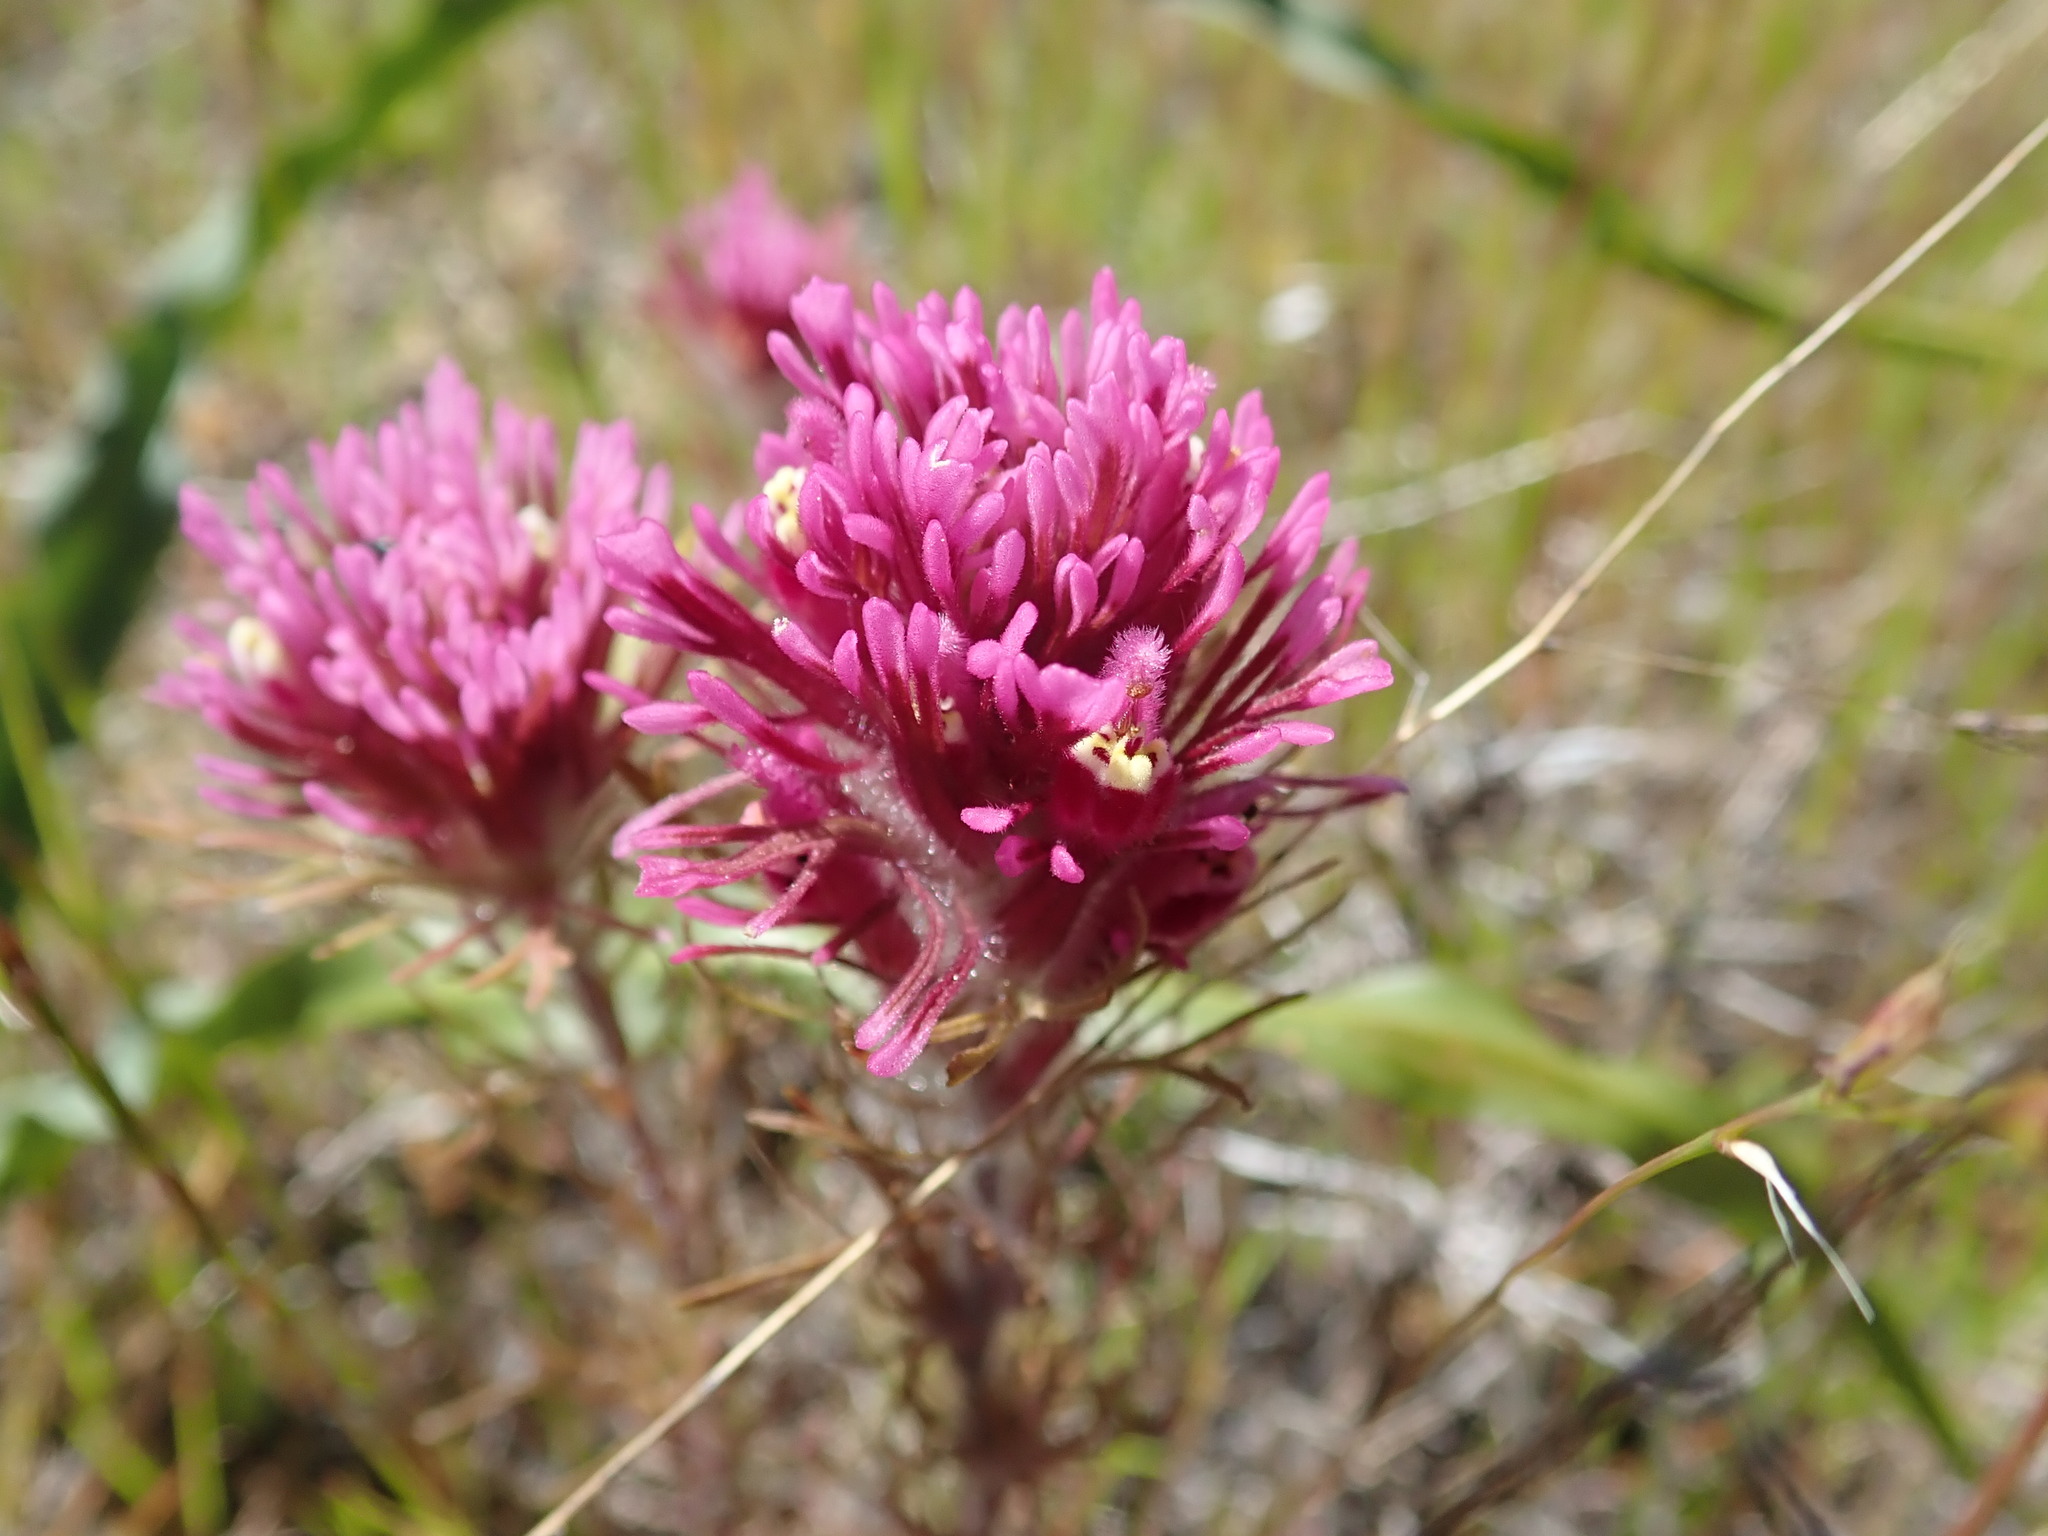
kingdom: Plantae
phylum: Tracheophyta
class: Magnoliopsida
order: Lamiales
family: Orobanchaceae
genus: Castilleja
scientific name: Castilleja exserta
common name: Purple owl-clover
